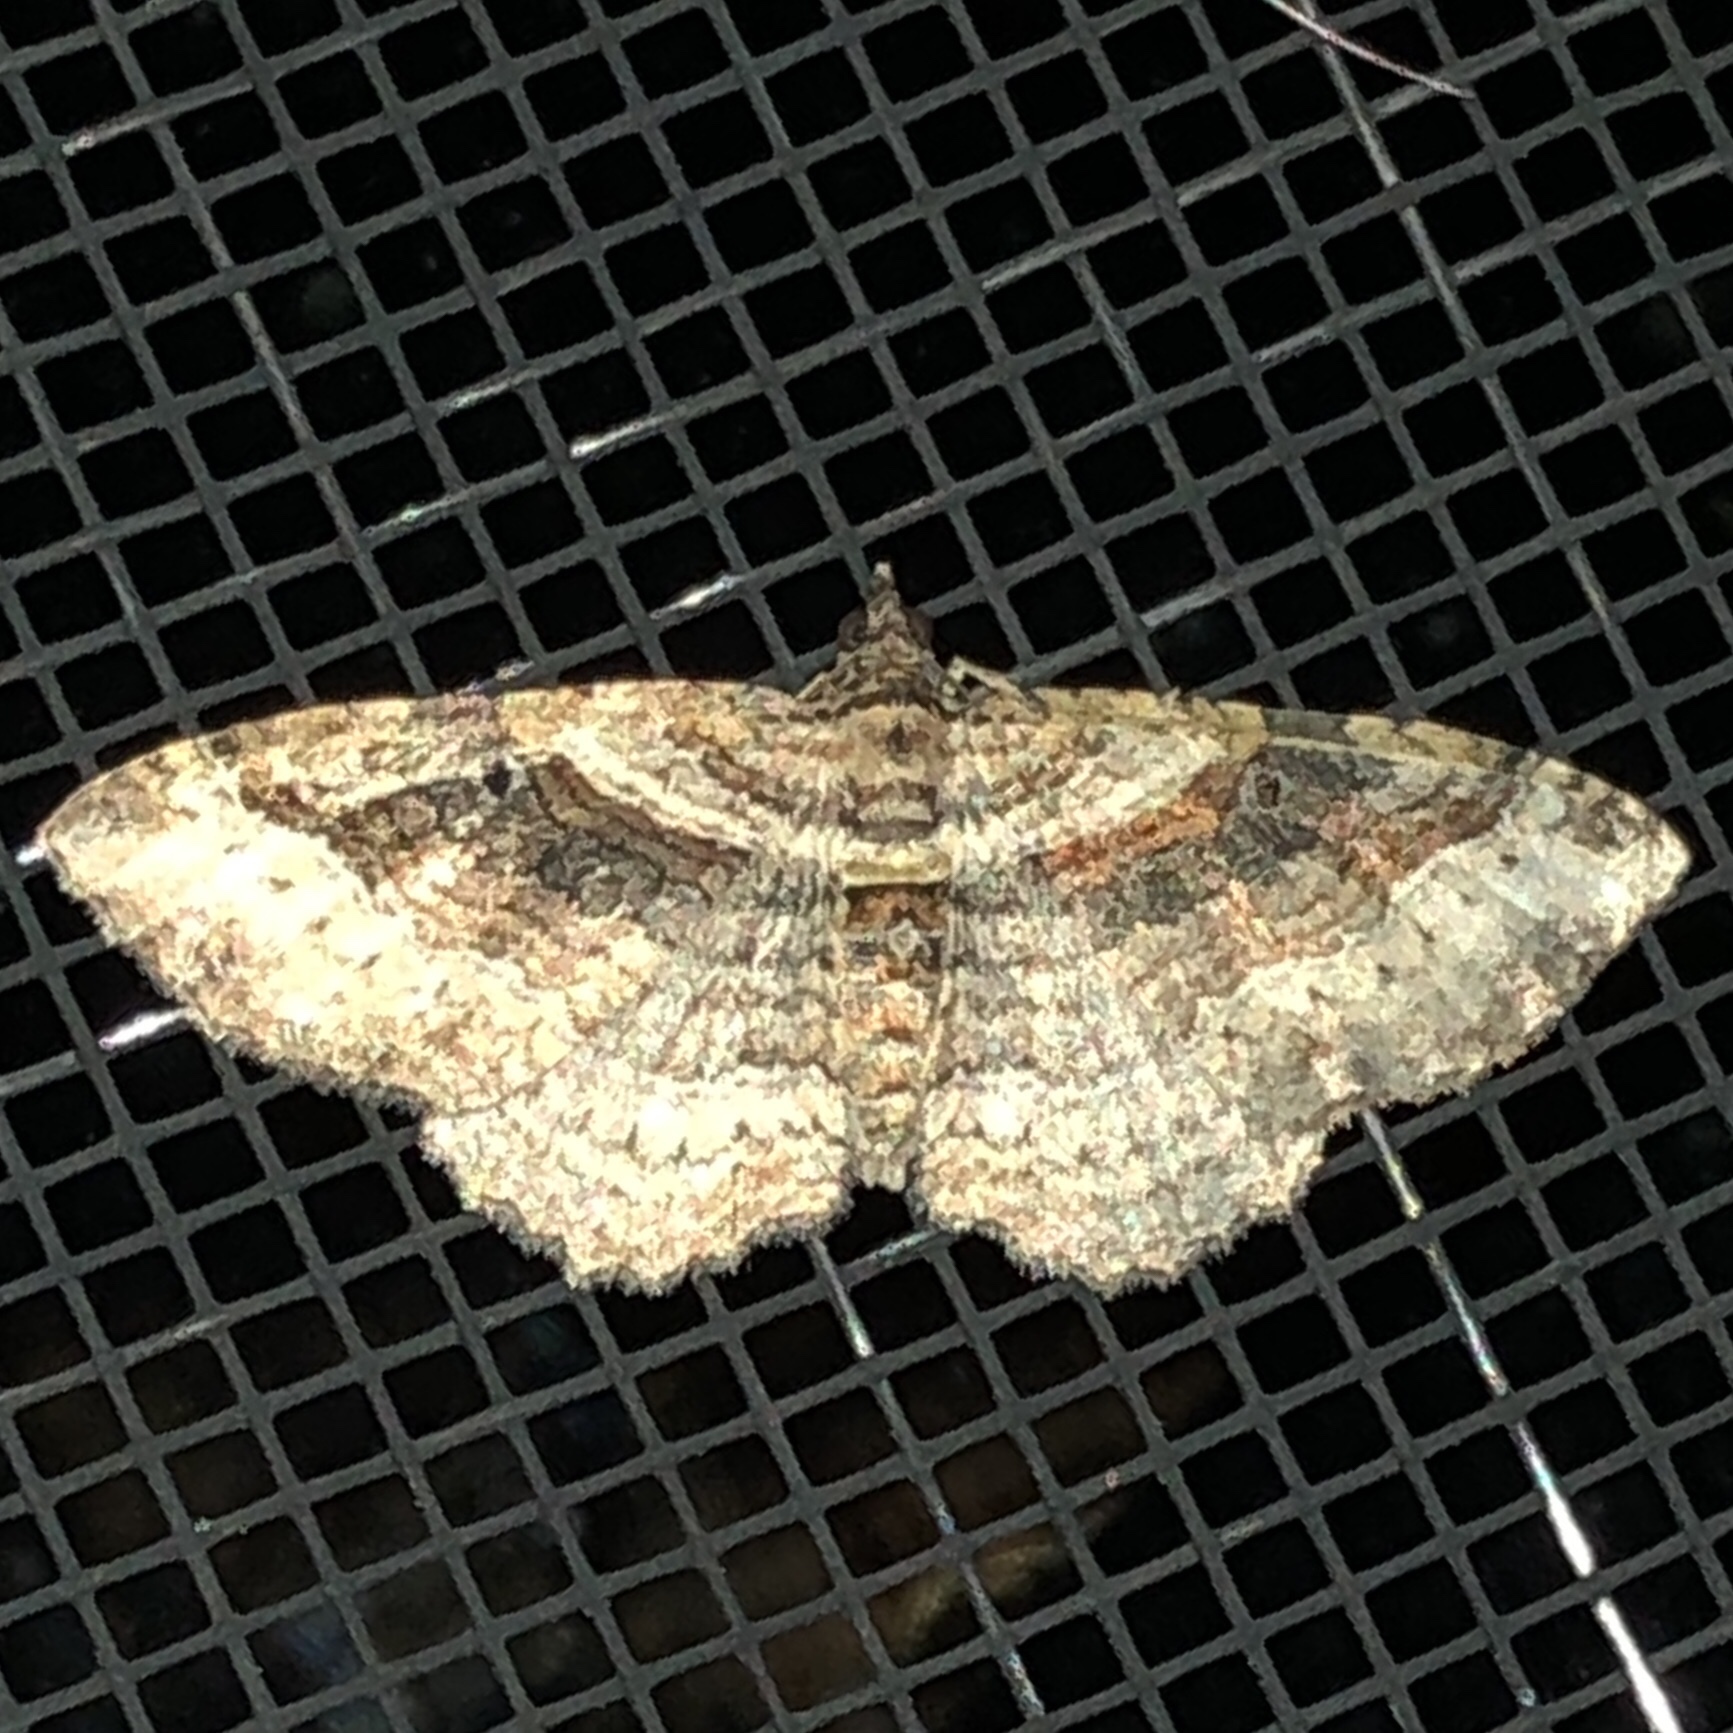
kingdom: Animalia
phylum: Arthropoda
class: Insecta
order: Lepidoptera
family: Geometridae
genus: Costaconvexa
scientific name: Costaconvexa centrostrigaria
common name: Bent-line carpet
